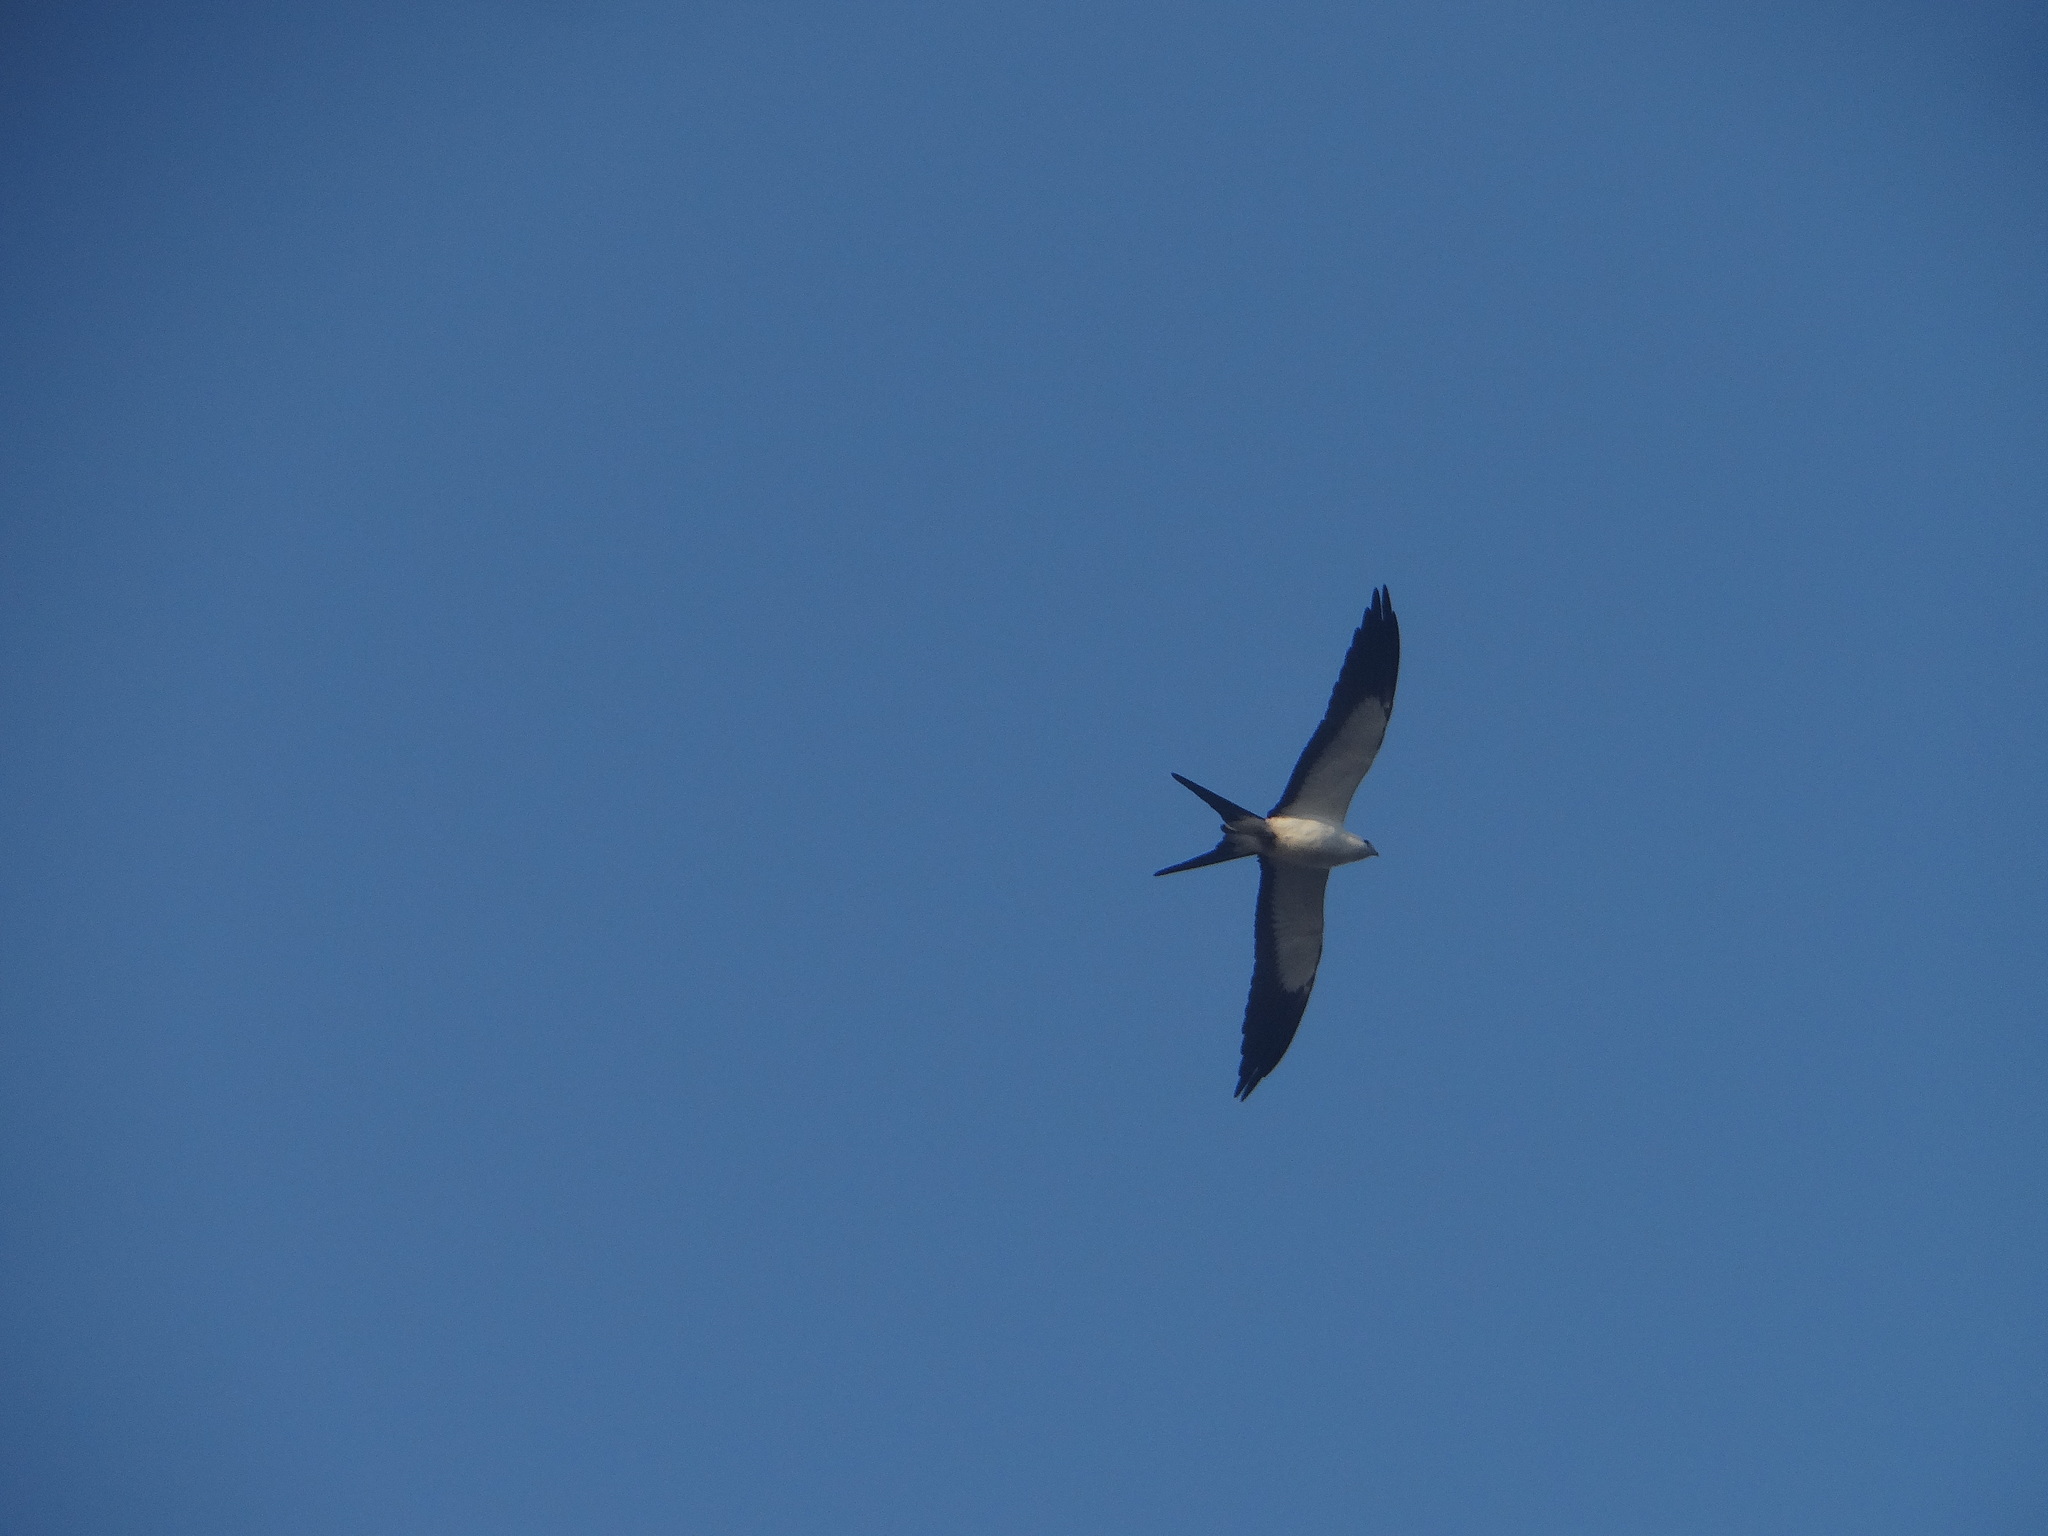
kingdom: Animalia
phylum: Chordata
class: Aves
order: Accipitriformes
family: Accipitridae
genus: Elanoides
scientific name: Elanoides forficatus
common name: Swallow-tailed kite
